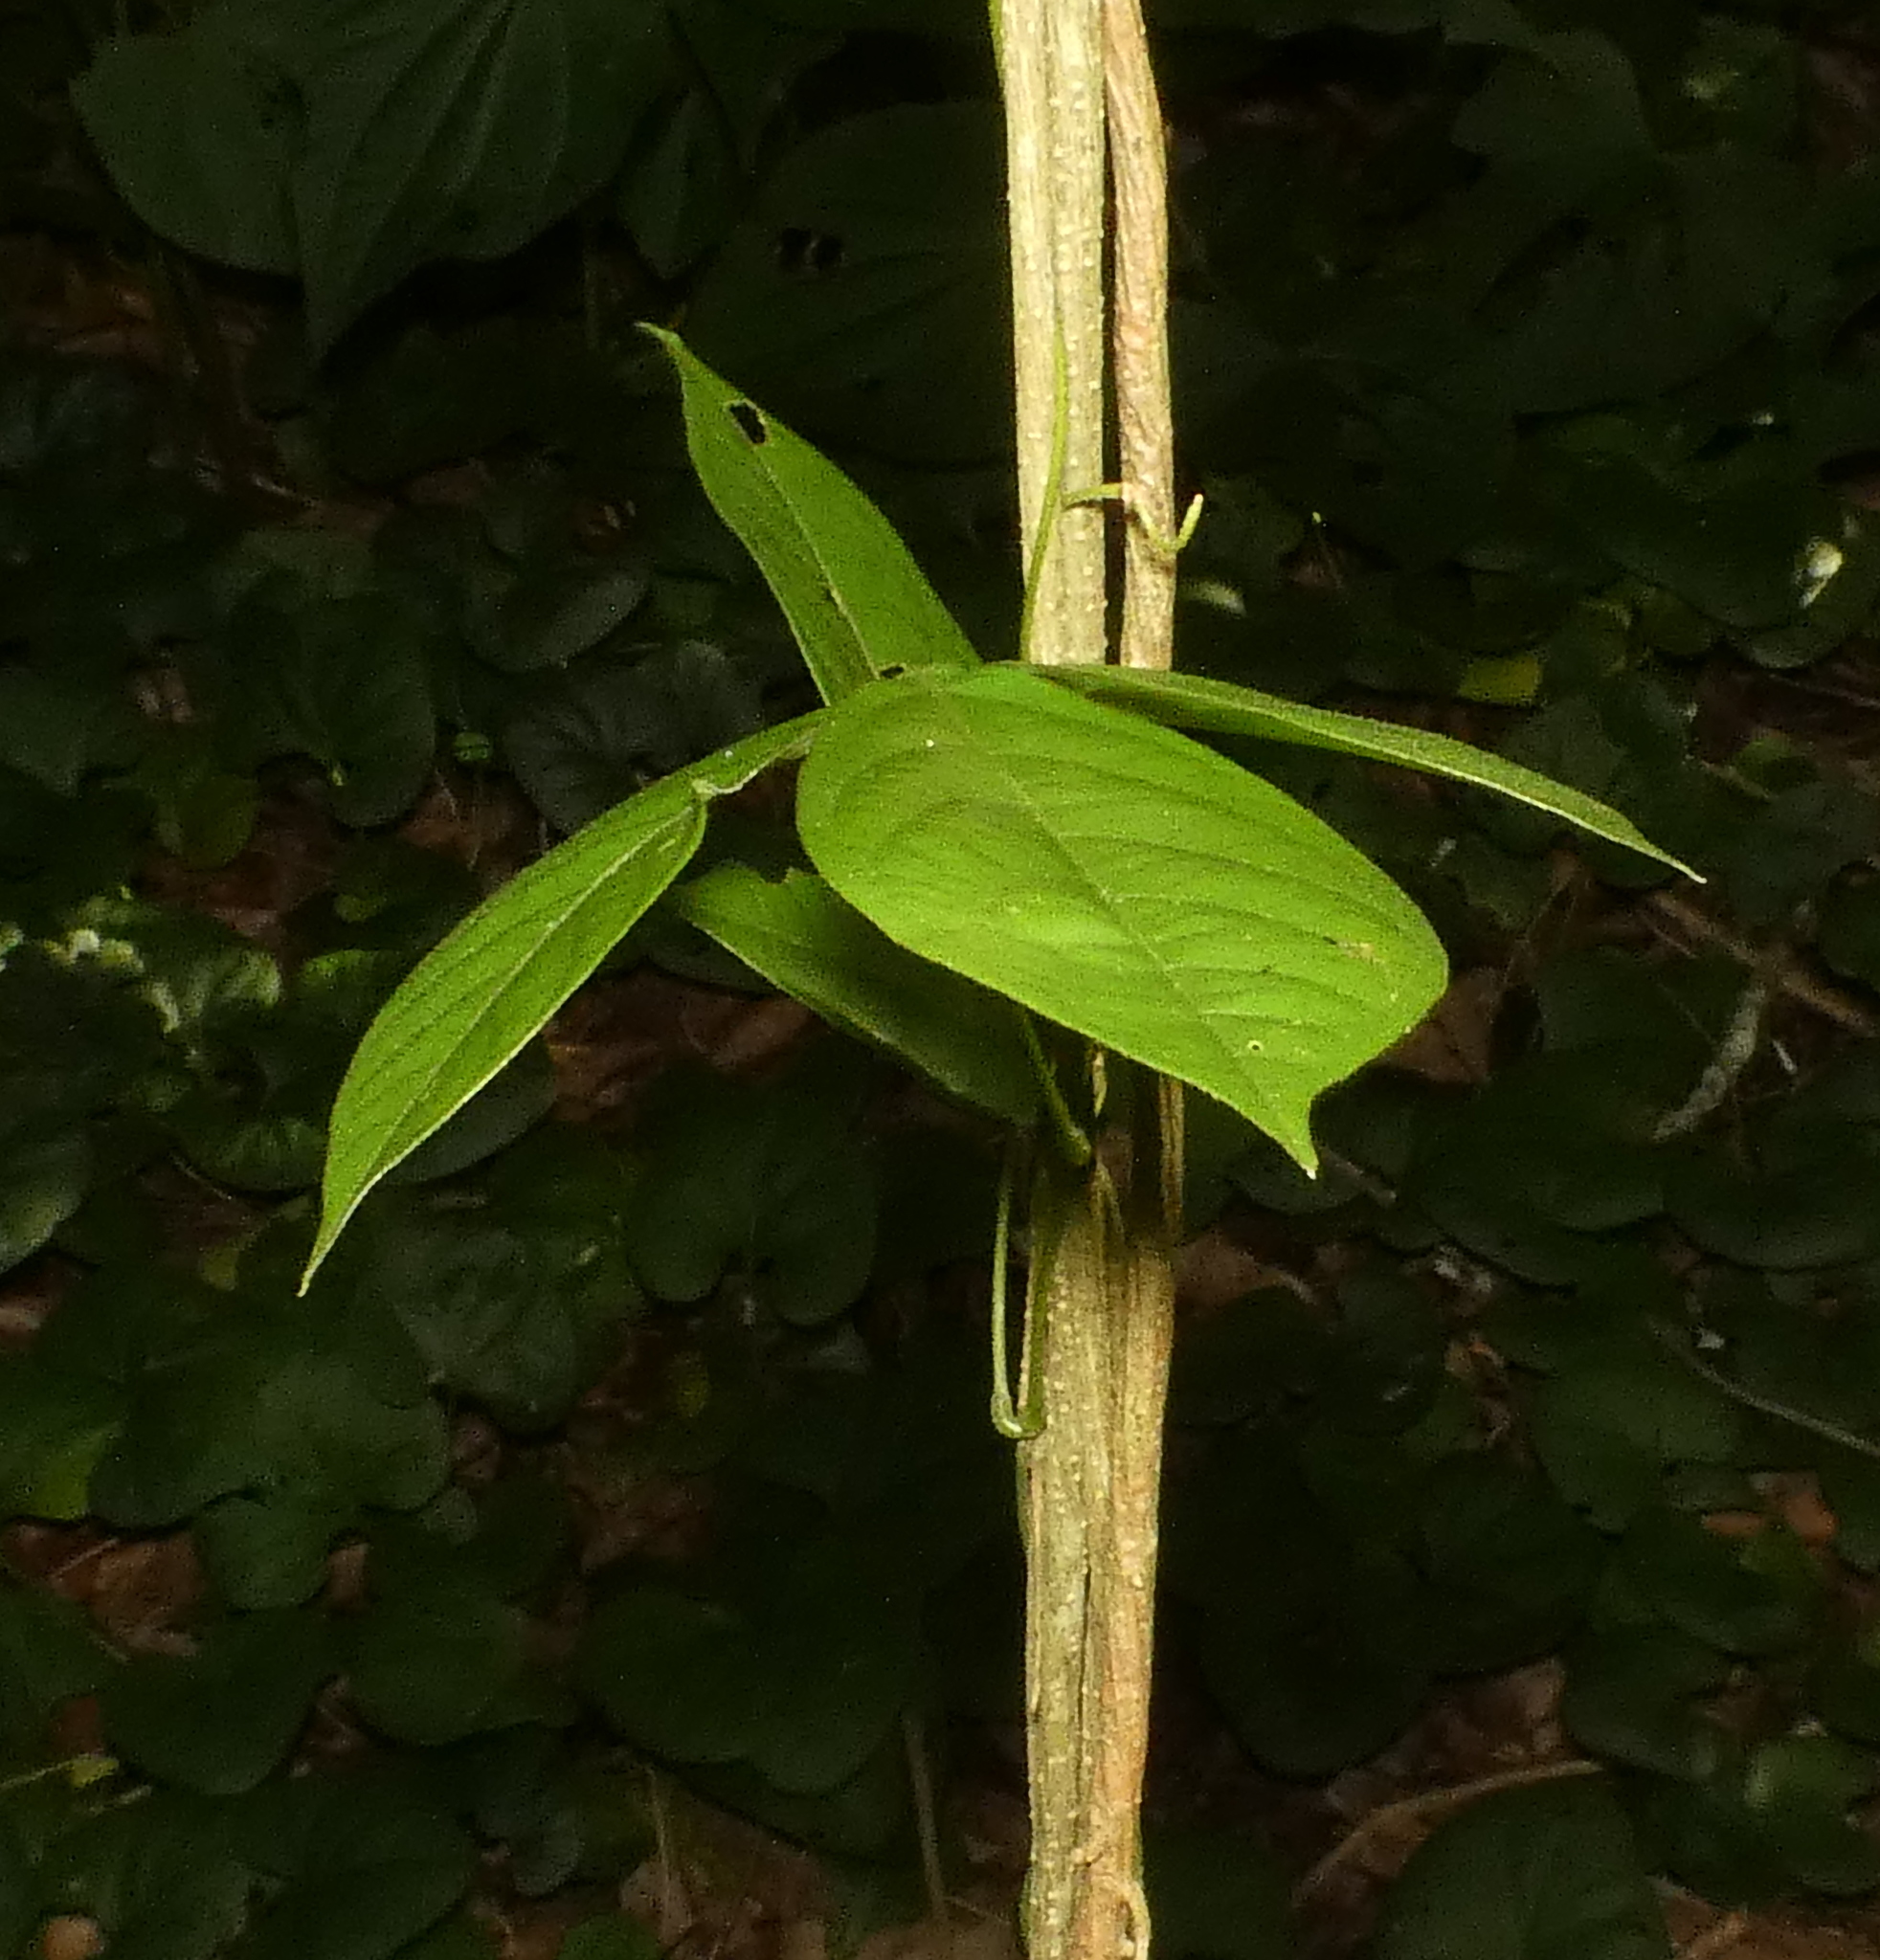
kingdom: Plantae
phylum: Tracheophyta
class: Magnoliopsida
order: Fabales
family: Fabaceae
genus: Mucuna
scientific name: Mucuna pruriens
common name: Cow-itch
